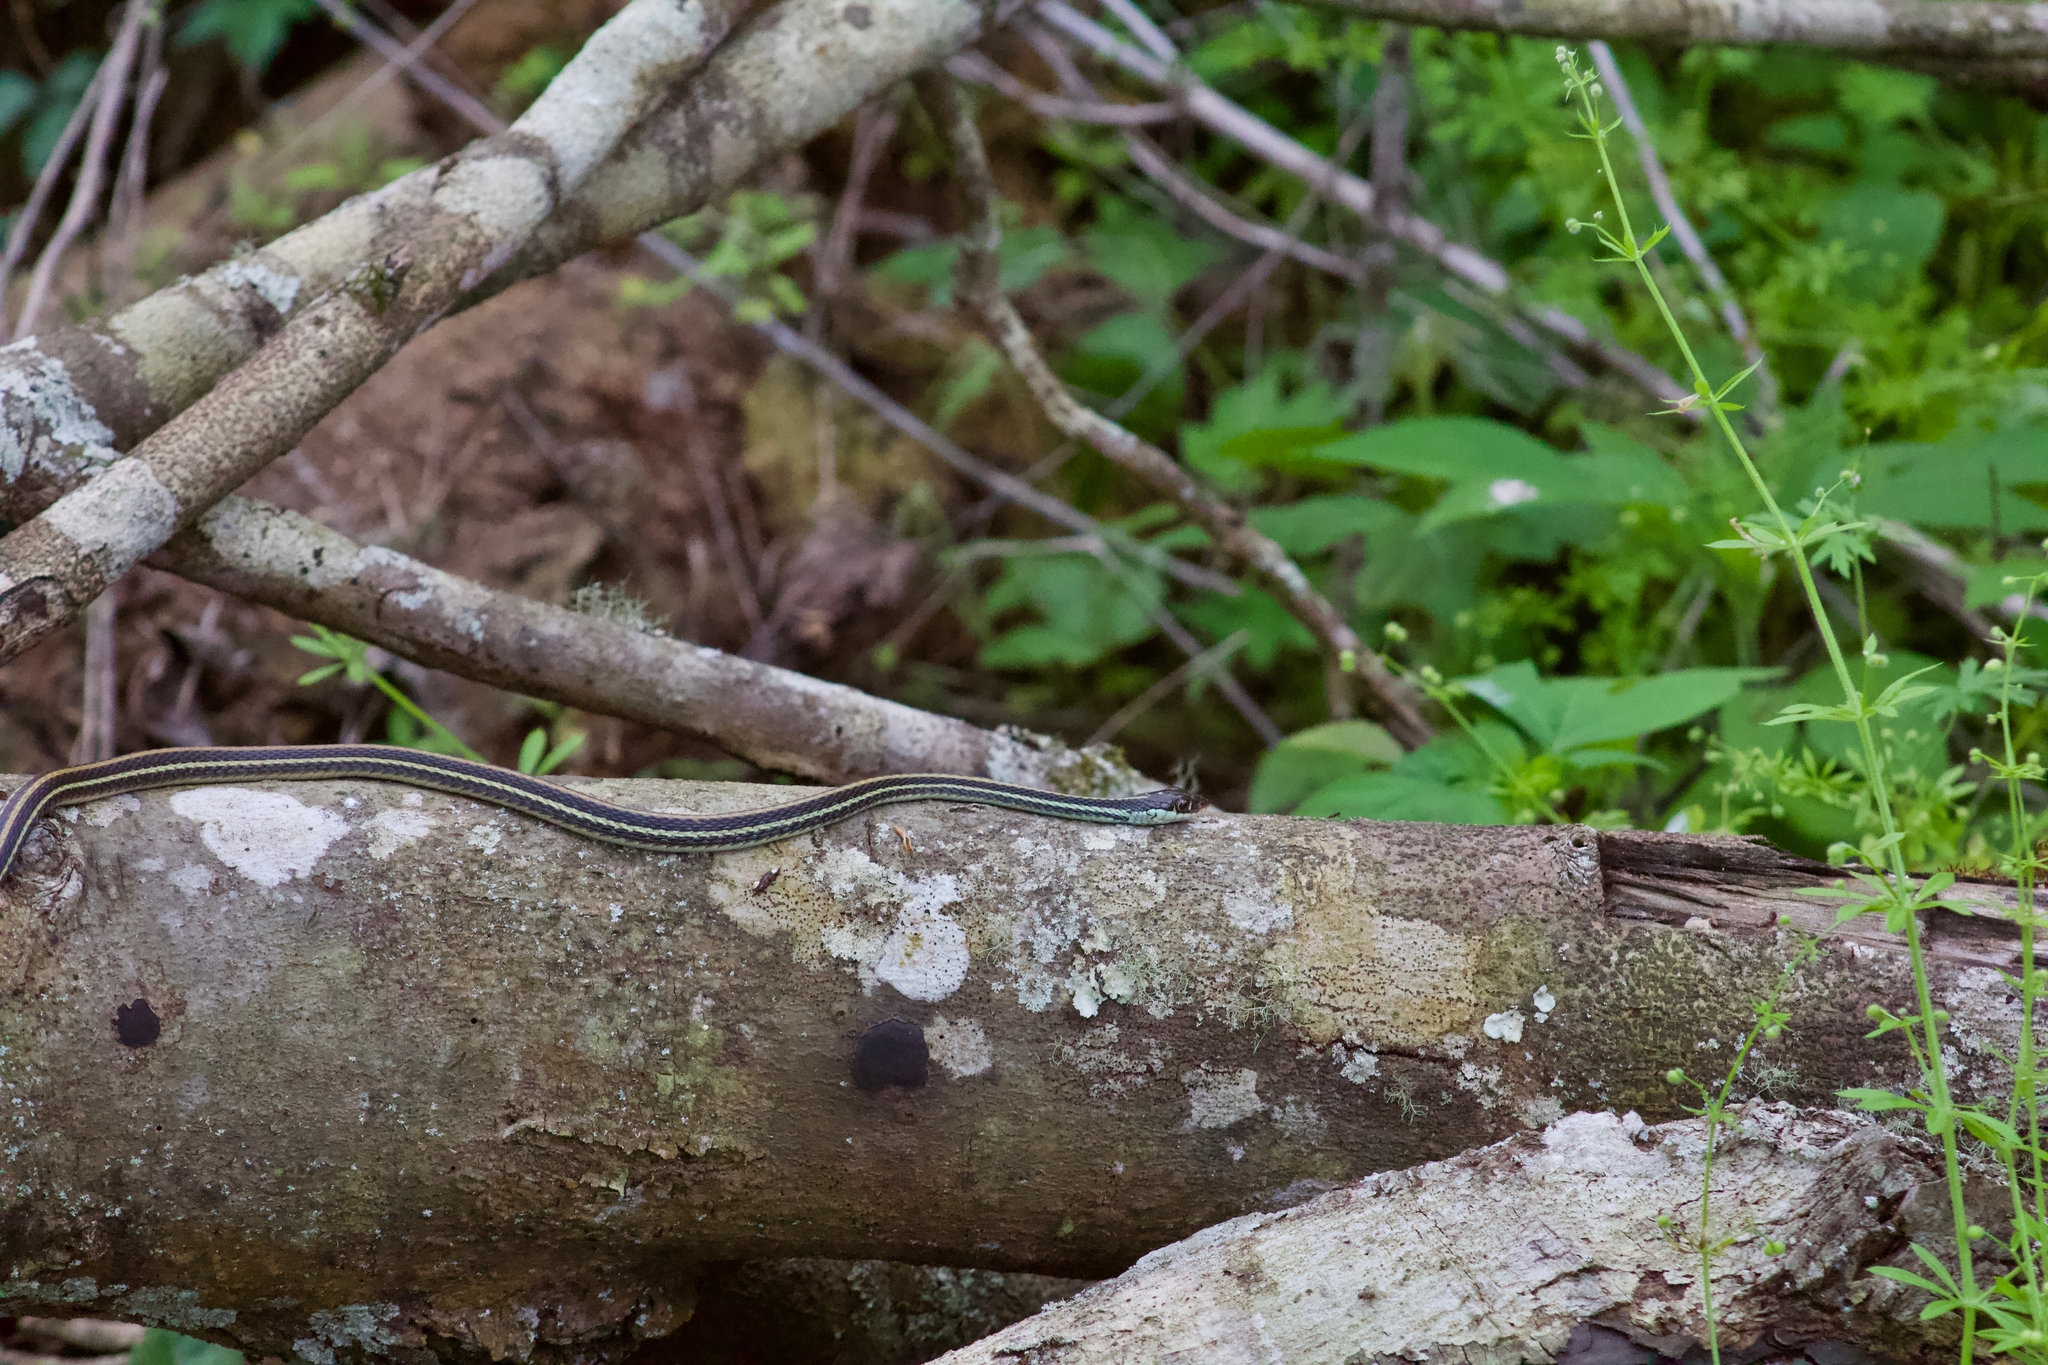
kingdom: Animalia
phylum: Chordata
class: Squamata
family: Colubridae
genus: Thamnophis
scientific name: Thamnophis proximus
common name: Western ribbon snake
